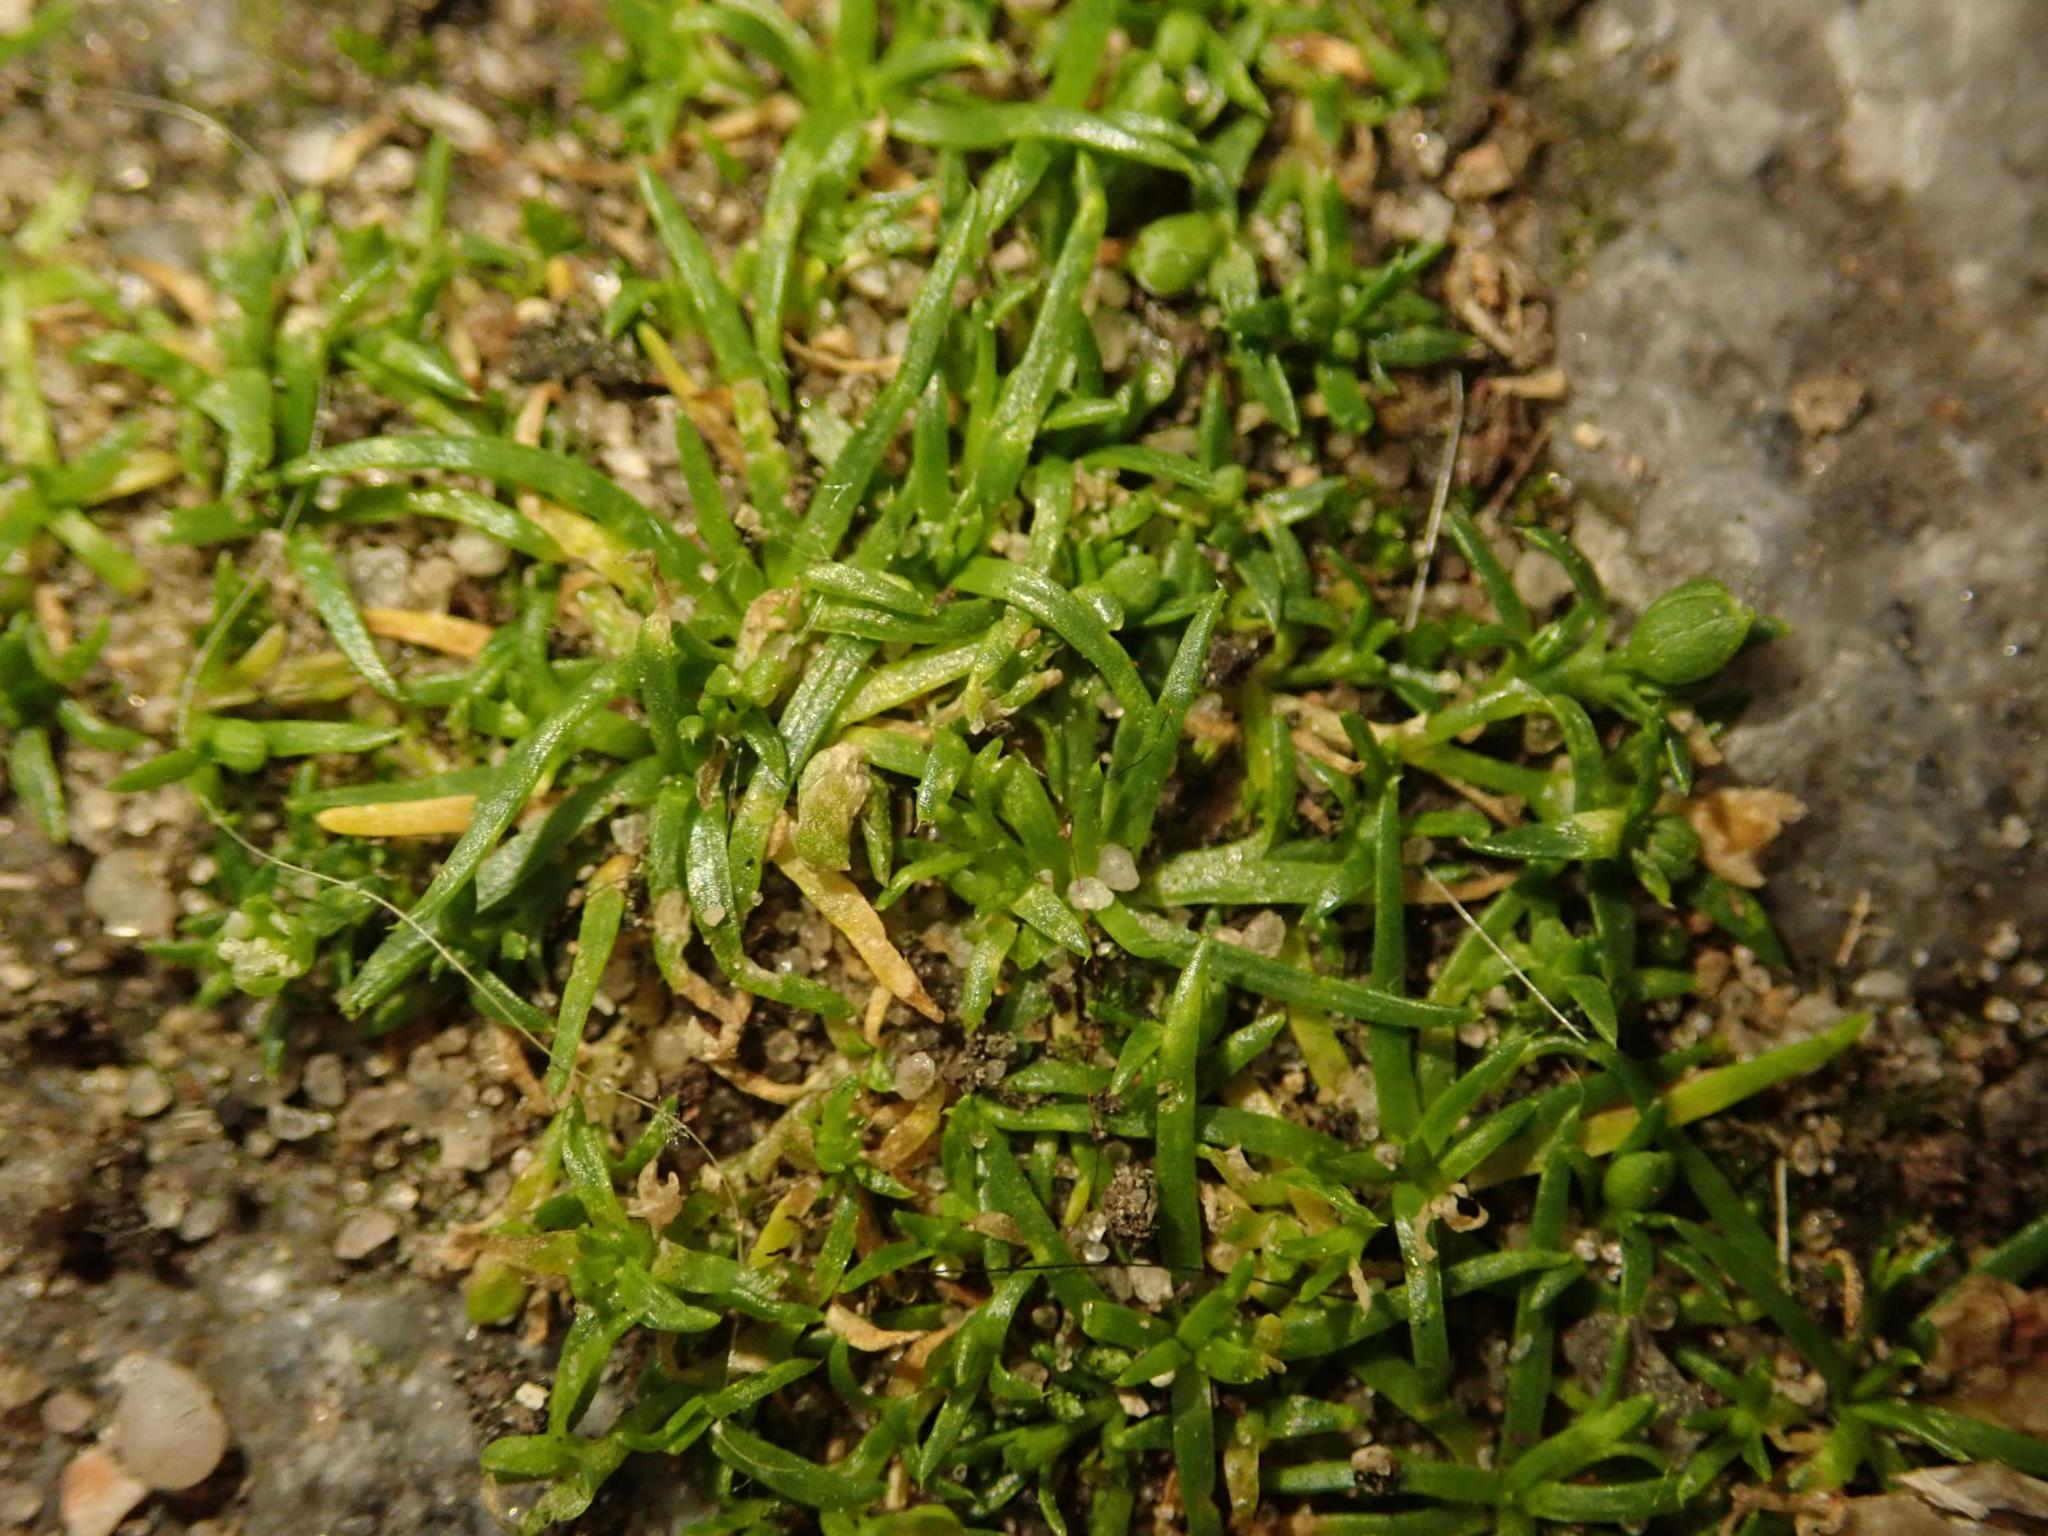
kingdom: Plantae
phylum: Tracheophyta
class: Magnoliopsida
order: Caryophyllales
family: Caryophyllaceae
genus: Sagina
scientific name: Sagina procumbens
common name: Procumbent pearlwort
